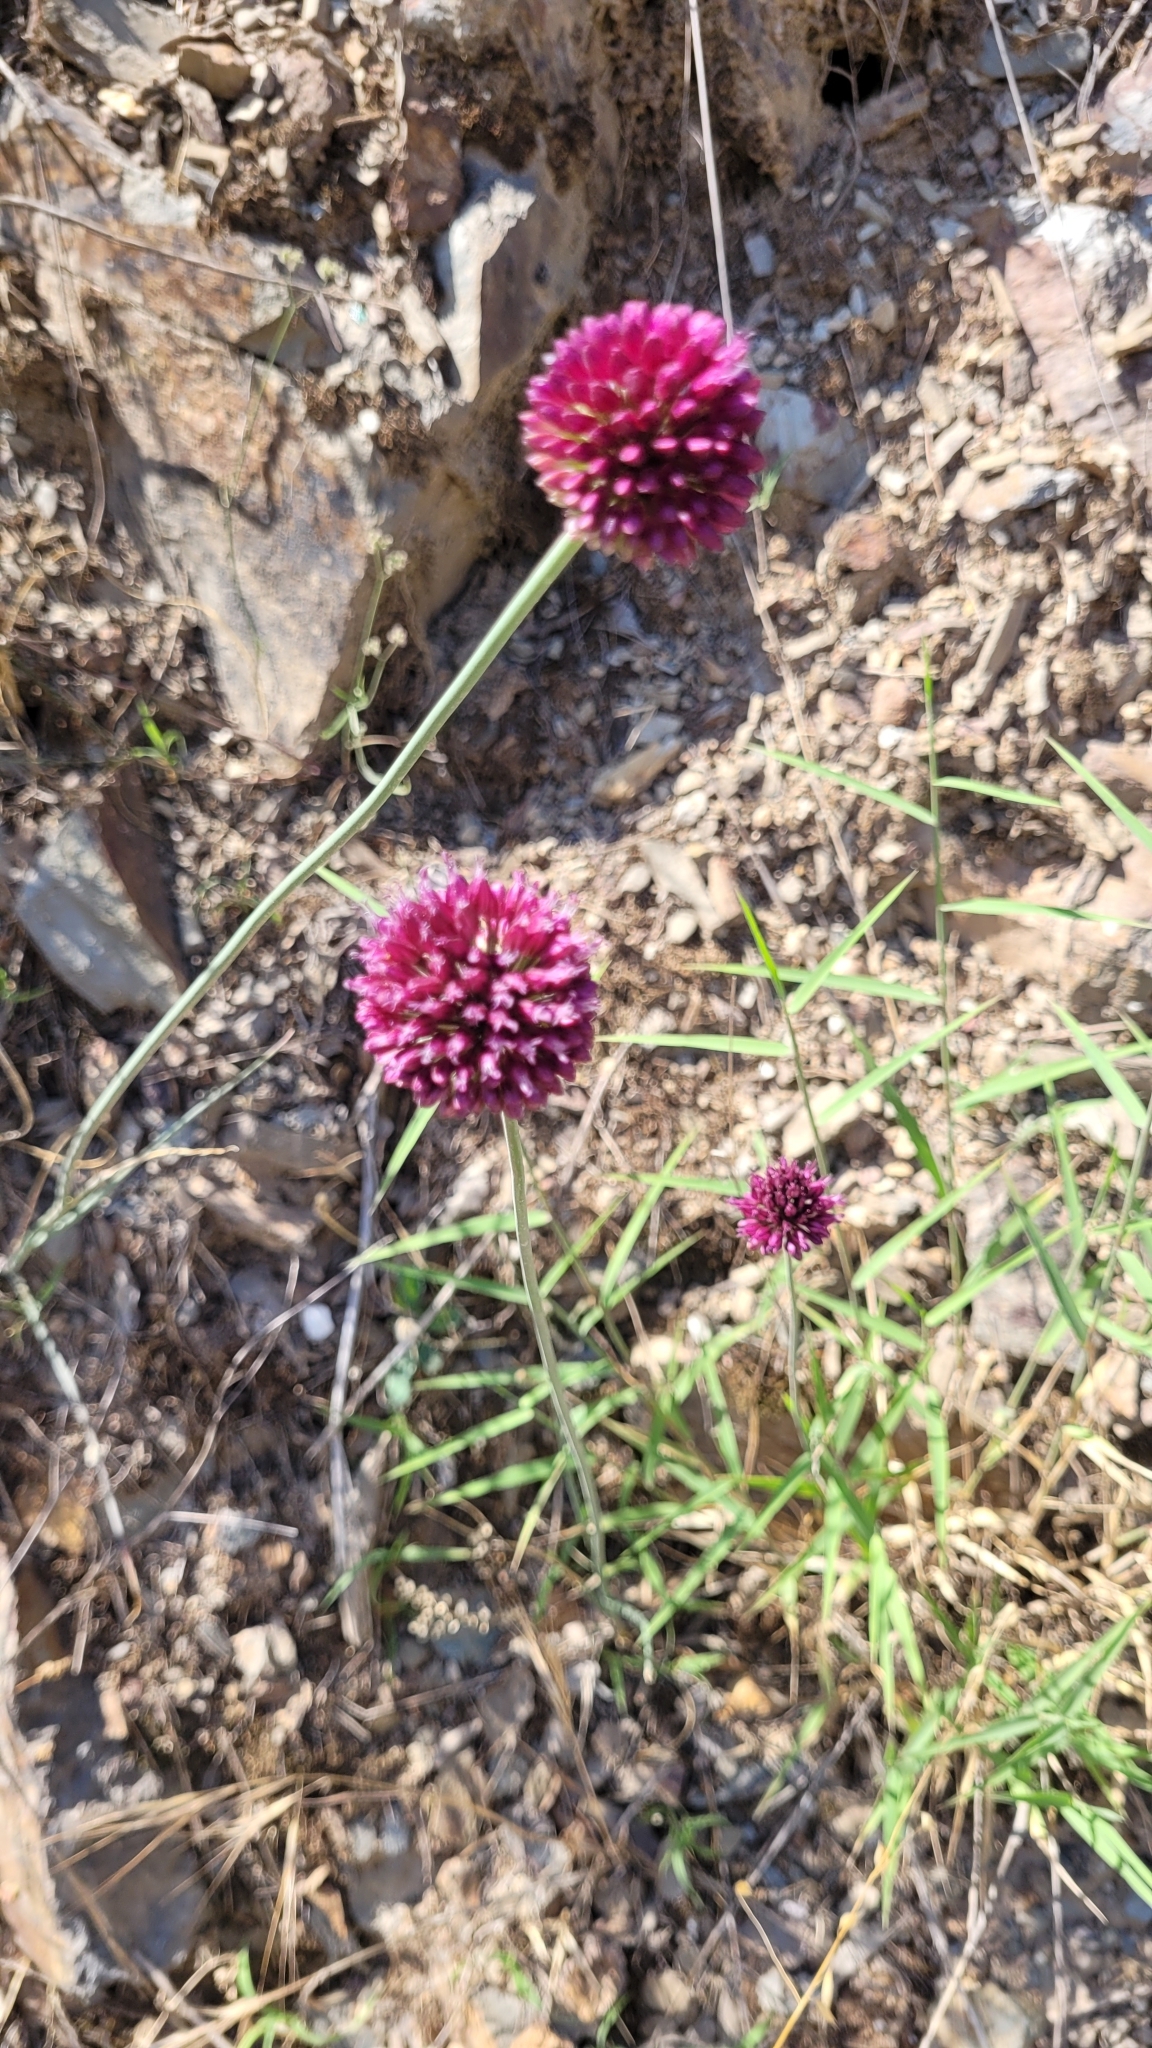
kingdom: Plantae
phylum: Tracheophyta
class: Liliopsida
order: Asparagales
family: Amaryllidaceae
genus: Allium
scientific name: Allium sphaerocephalon
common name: Round-headed leek
